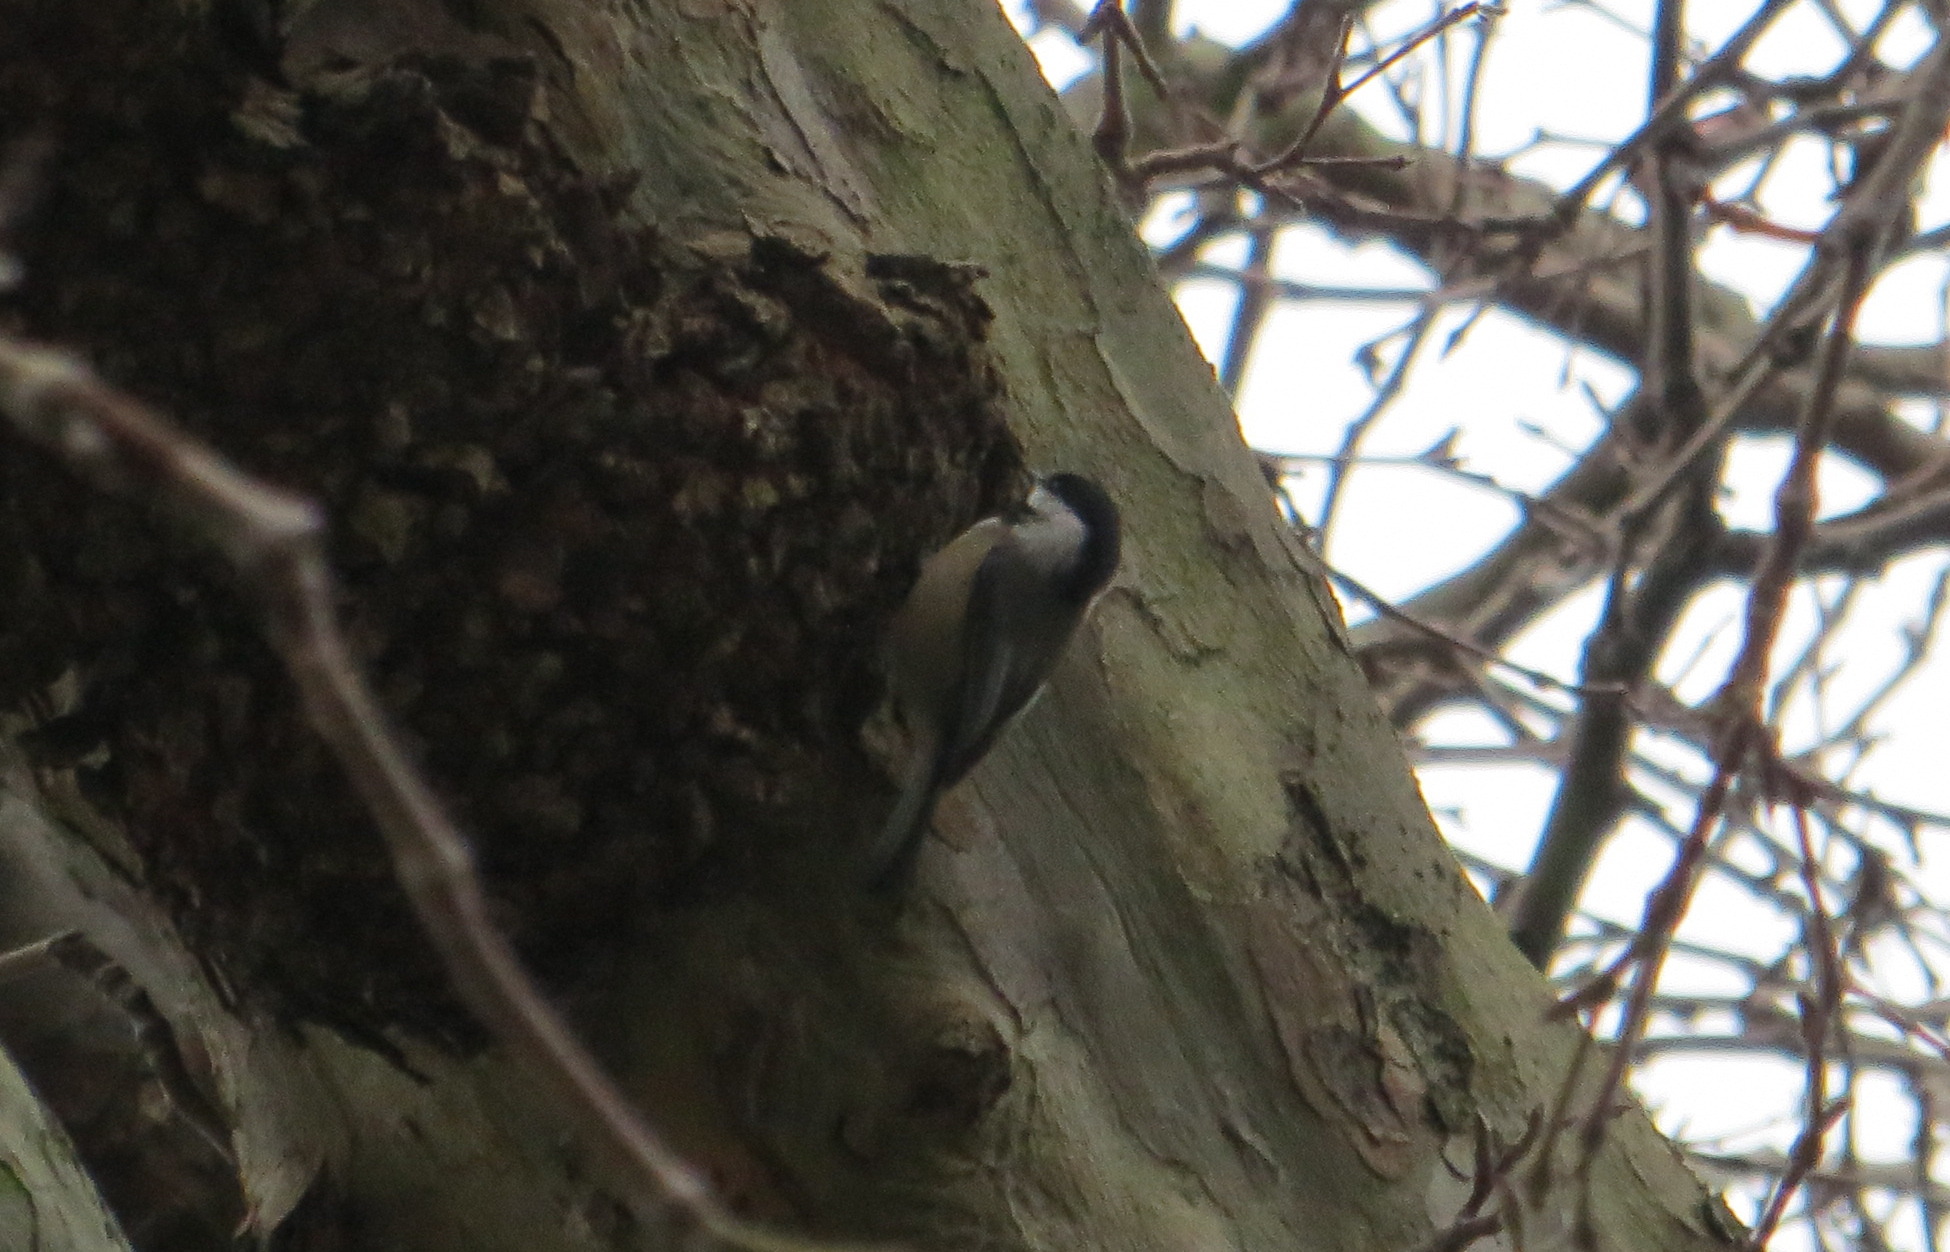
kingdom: Animalia
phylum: Chordata
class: Aves
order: Passeriformes
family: Paridae
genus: Poecile
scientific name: Poecile atricapillus
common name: Black-capped chickadee
